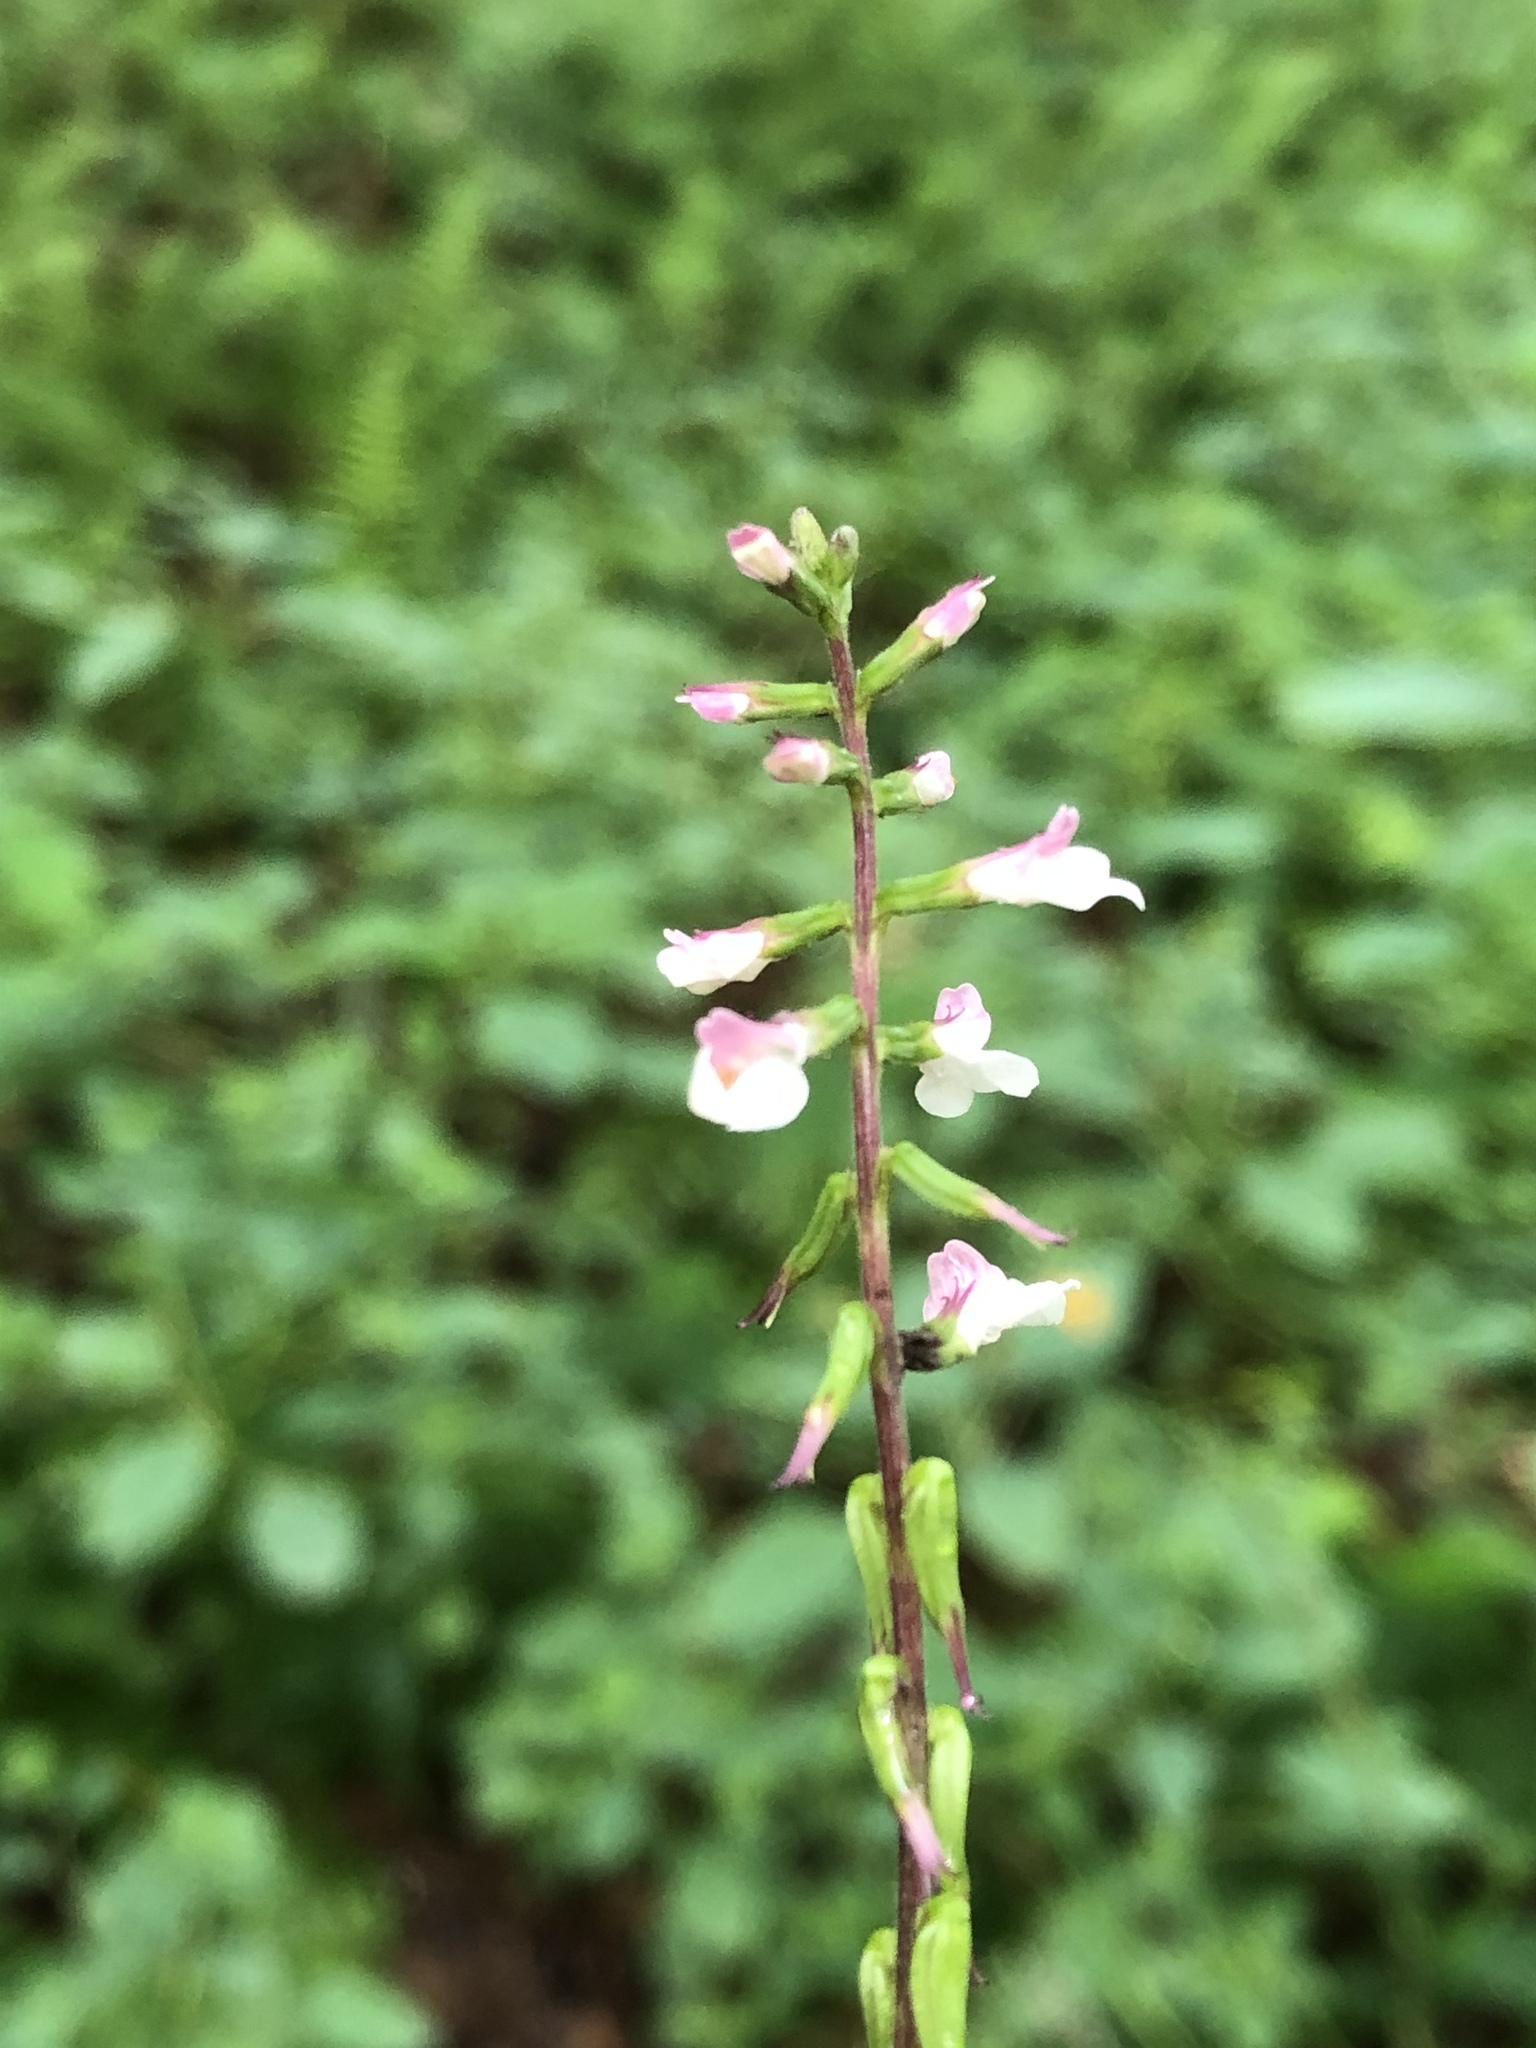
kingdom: Plantae
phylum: Tracheophyta
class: Magnoliopsida
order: Lamiales
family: Phrymaceae
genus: Phryma
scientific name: Phryma leptostachya
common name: American lopseed
